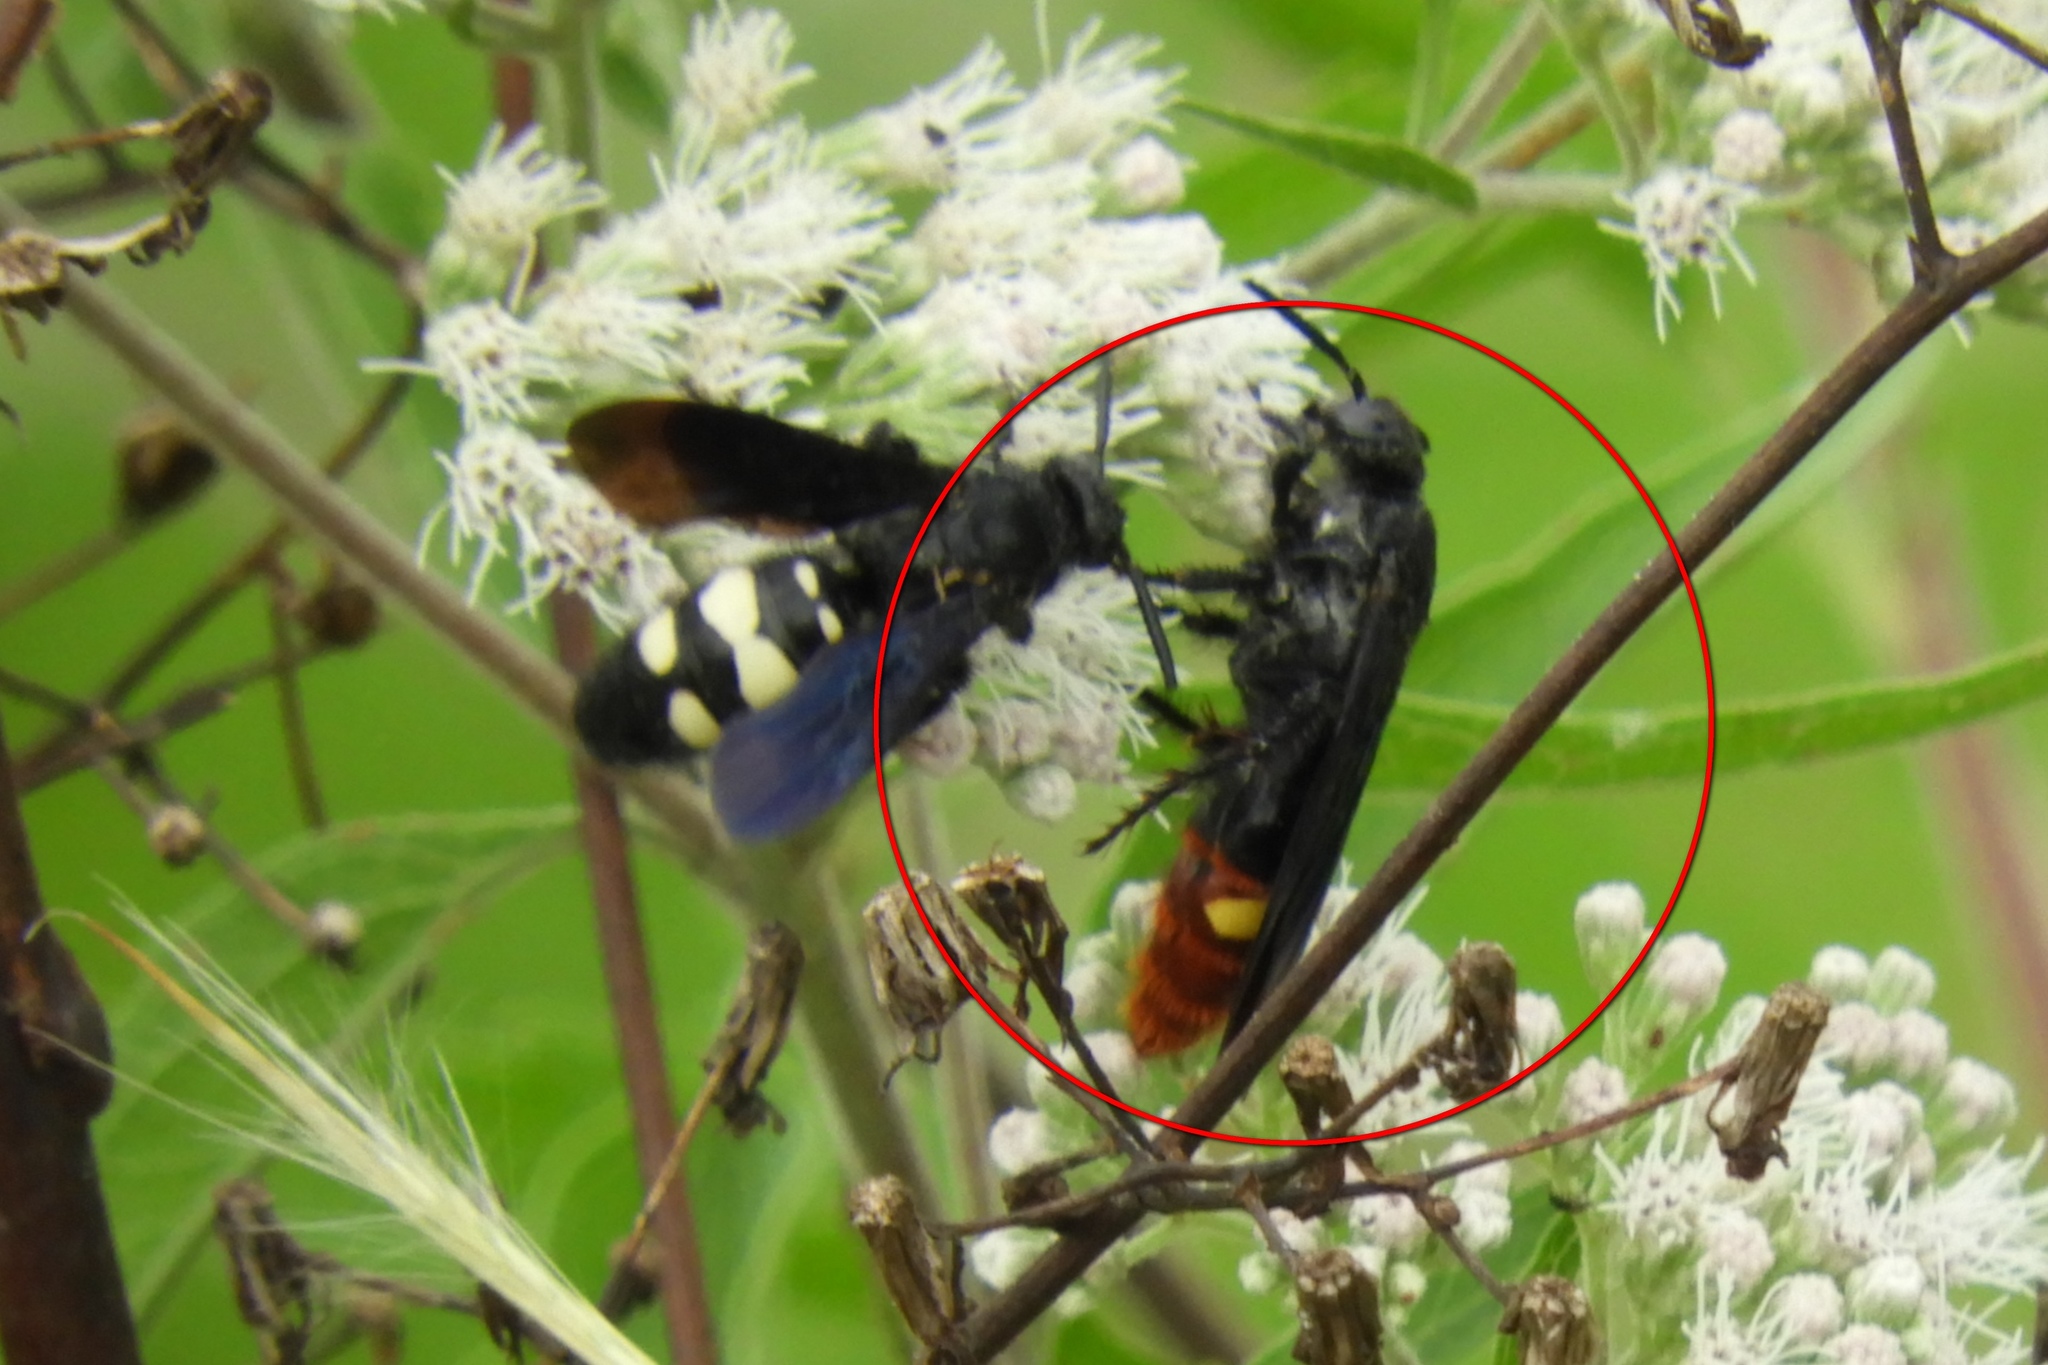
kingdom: Animalia
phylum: Arthropoda
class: Insecta
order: Hymenoptera
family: Scoliidae
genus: Scolia
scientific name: Scolia dubia
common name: Blue-winged scoliid wasp
